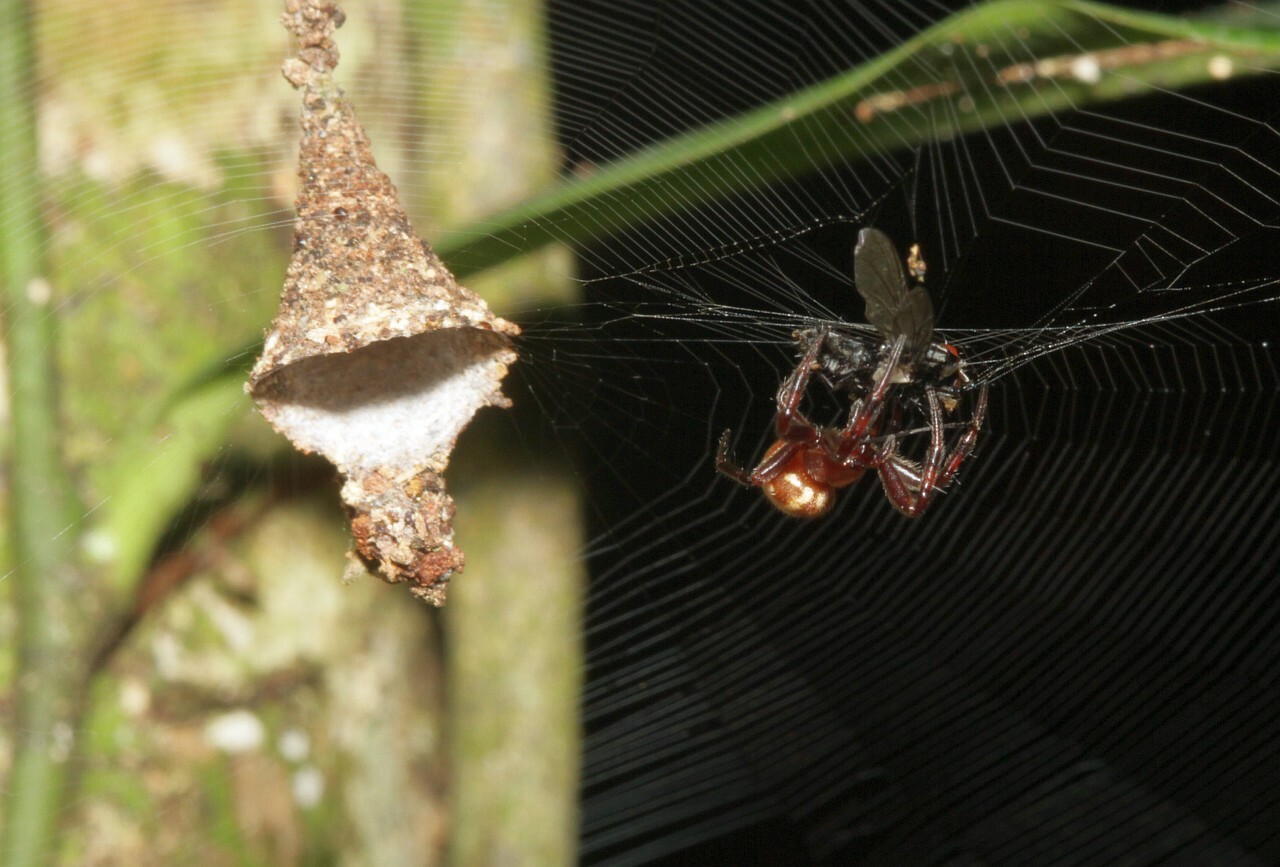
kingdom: Animalia
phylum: Arthropoda
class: Arachnida
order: Araneae
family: Araneidae
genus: Spilasma
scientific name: Spilasma duodecimguttata
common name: Orb weavers
